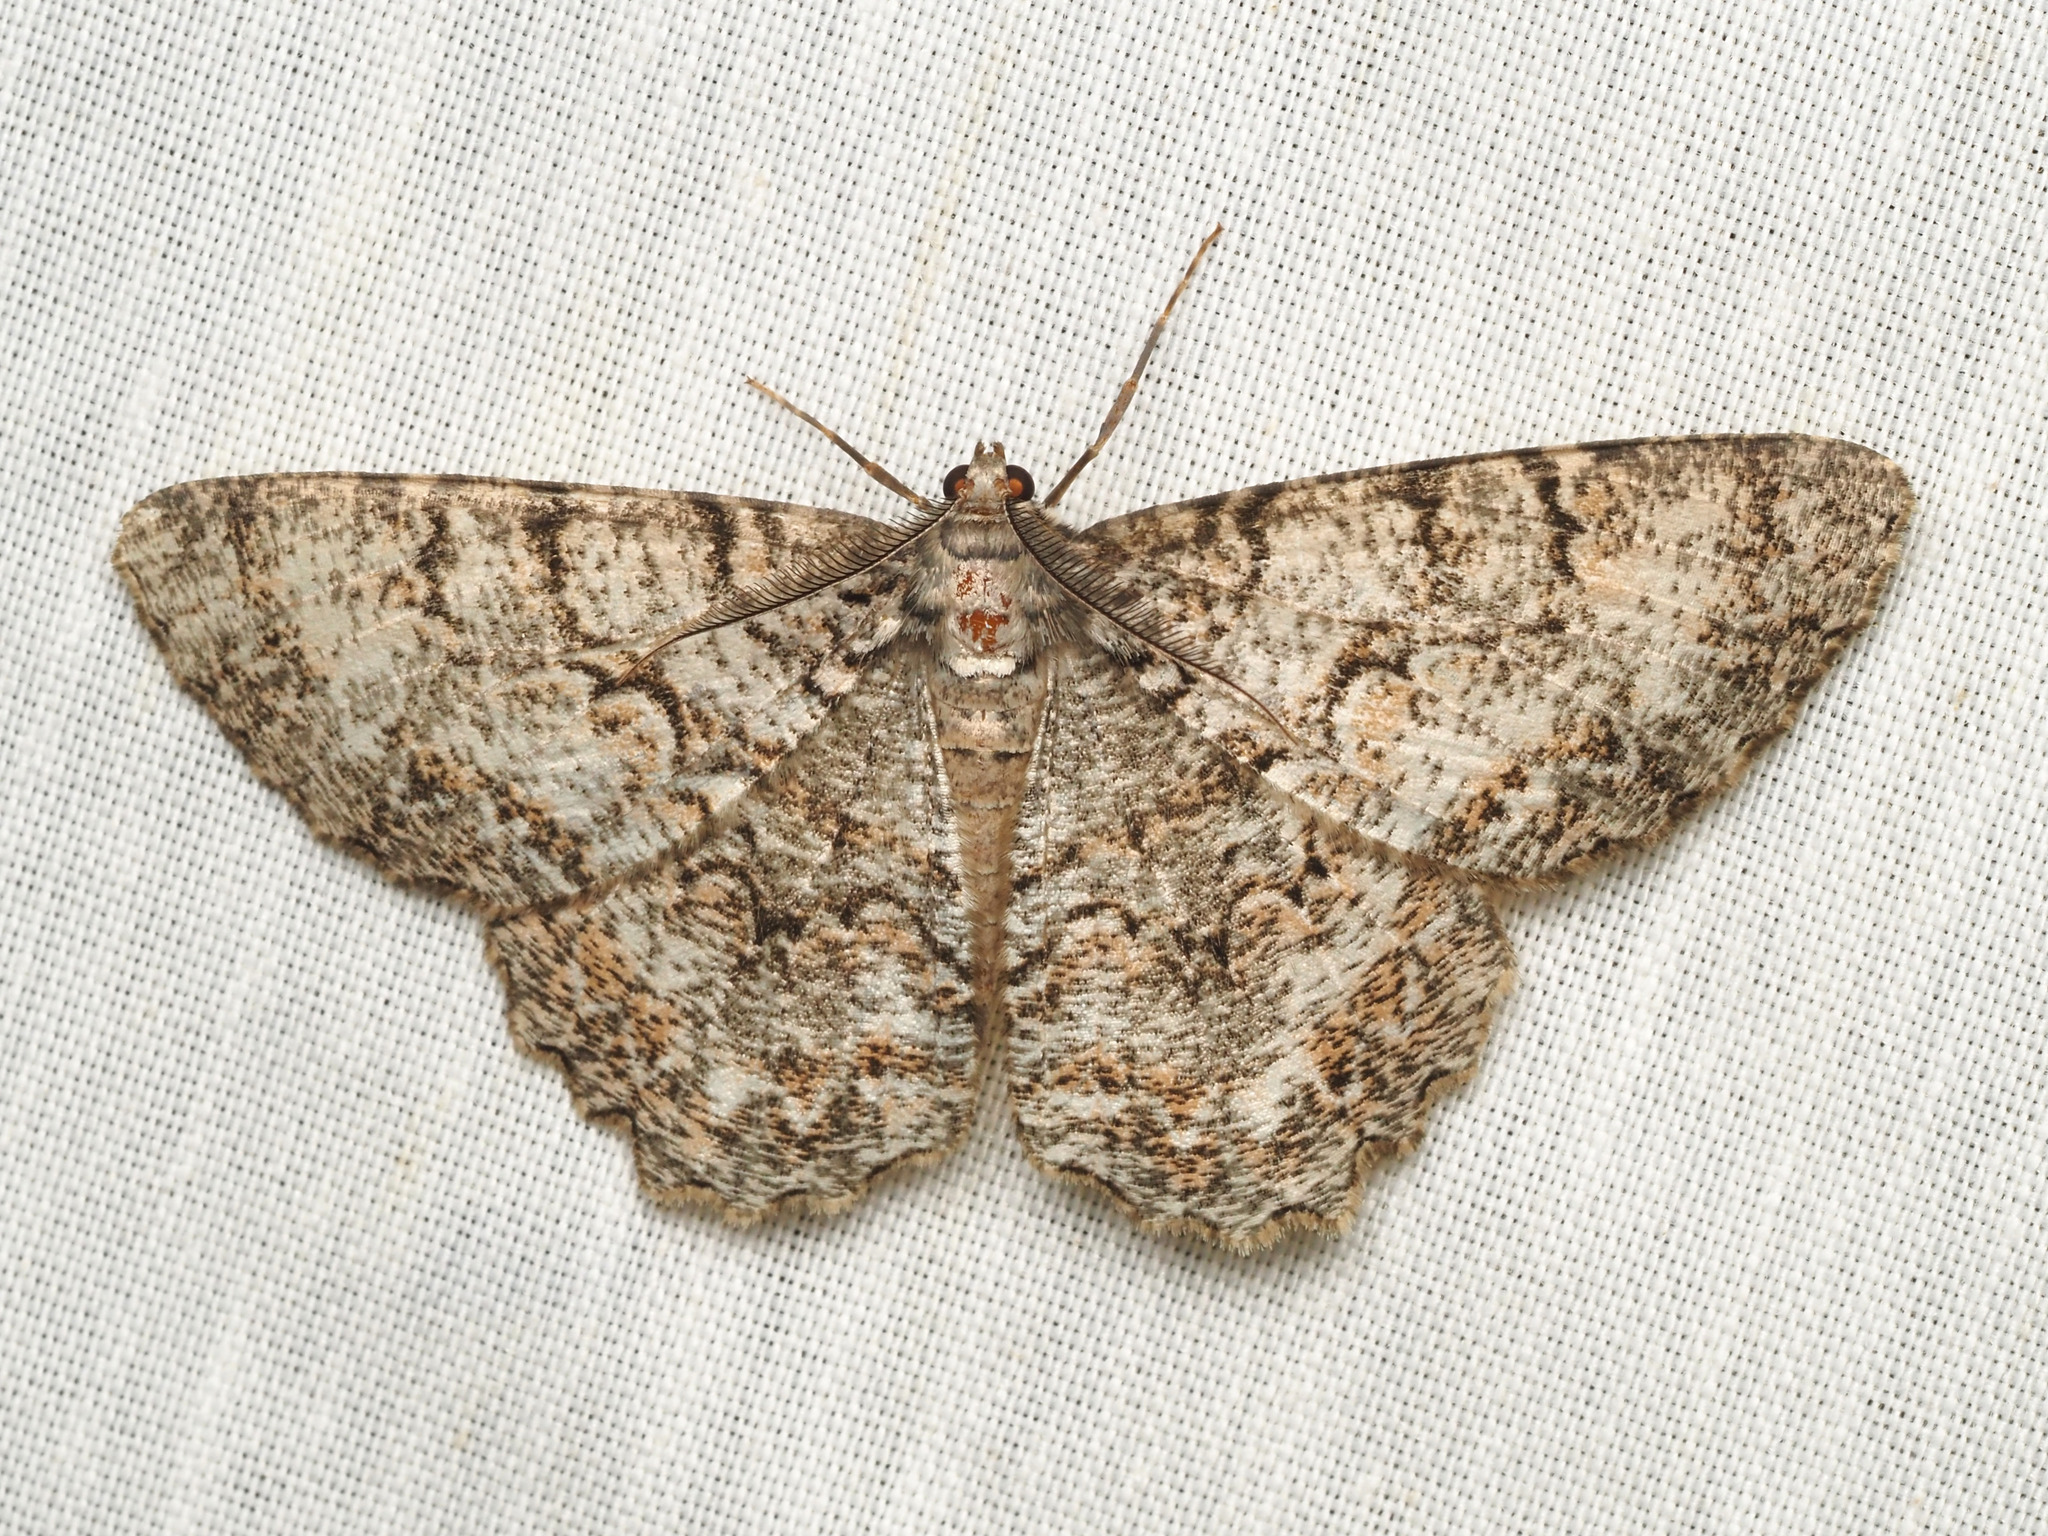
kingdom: Animalia
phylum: Arthropoda
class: Insecta
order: Lepidoptera
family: Geometridae
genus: Epimecis
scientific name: Epimecis hortaria
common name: Tulip-tree beauty
